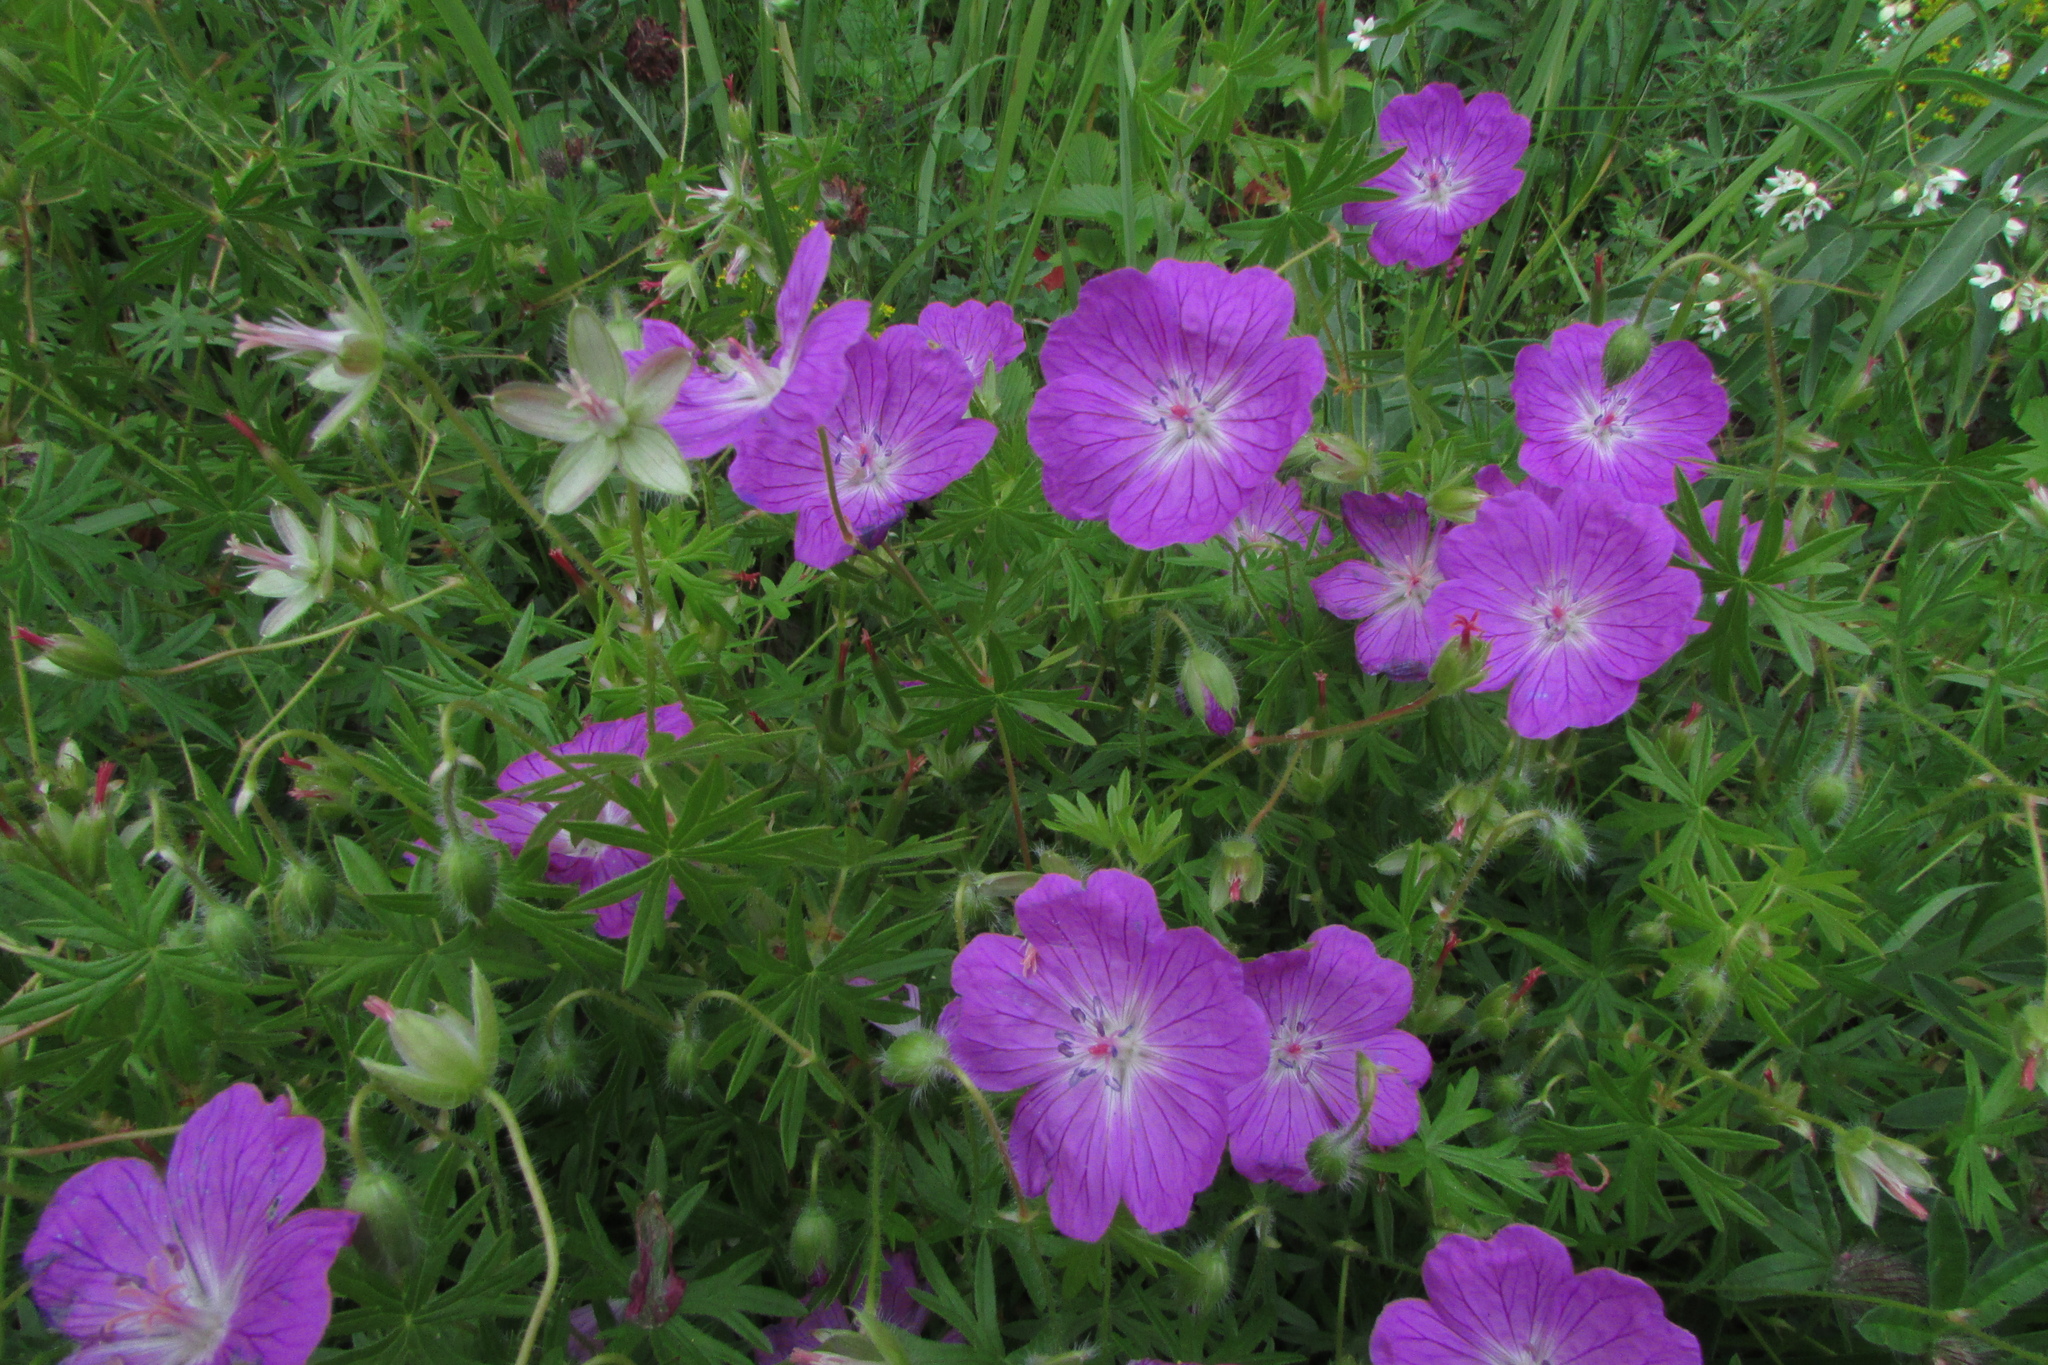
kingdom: Plantae
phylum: Tracheophyta
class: Magnoliopsida
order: Geraniales
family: Geraniaceae
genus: Geranium
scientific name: Geranium sanguineum
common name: Bloody crane's-bill
